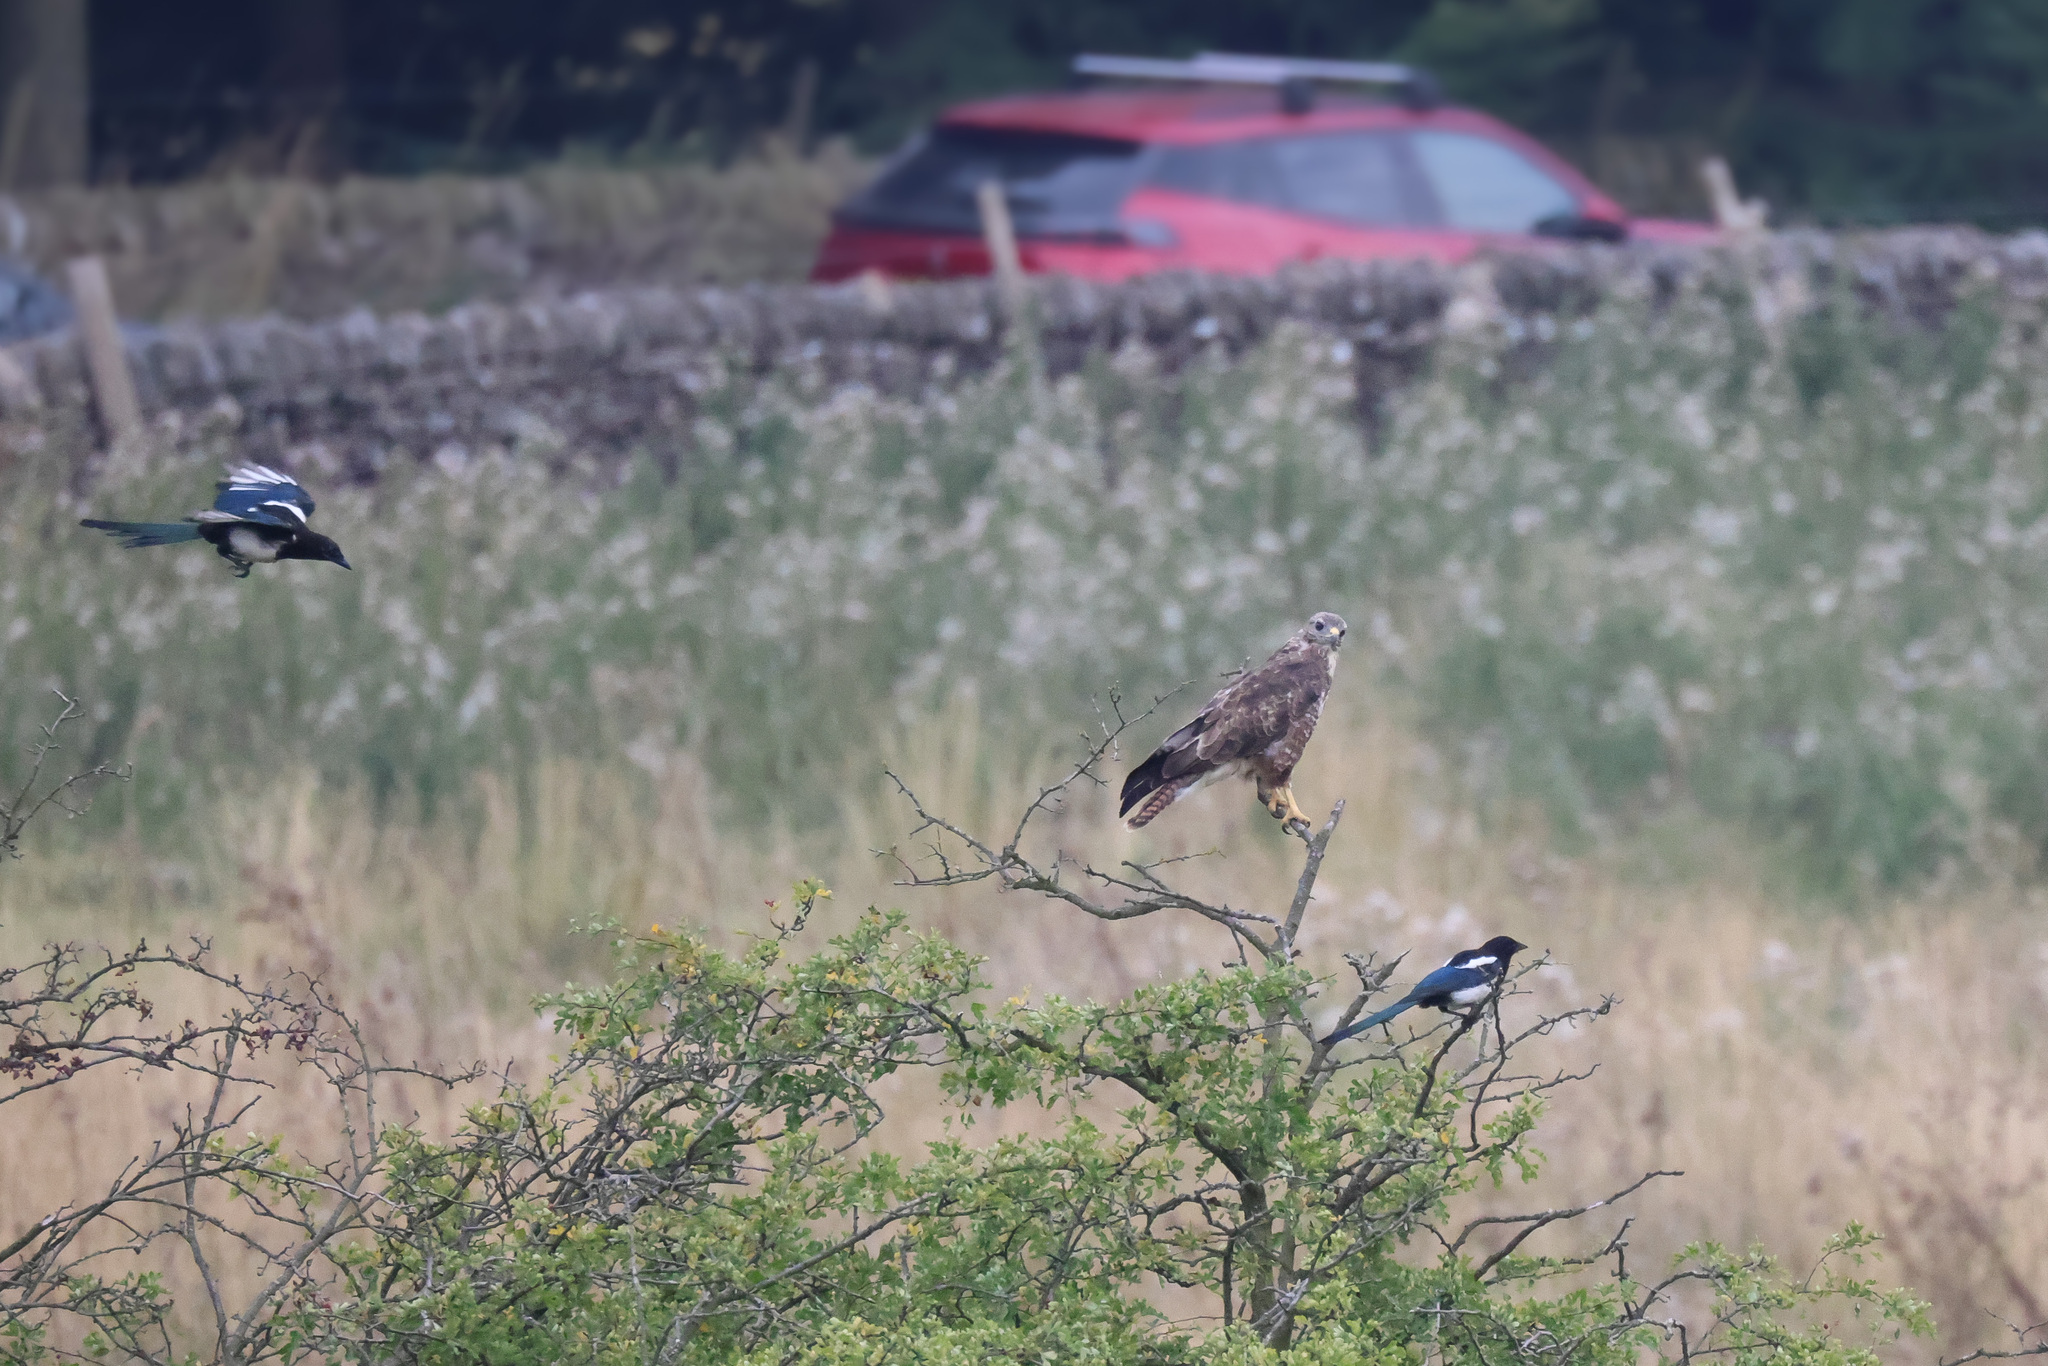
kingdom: Animalia
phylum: Chordata
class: Aves
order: Accipitriformes
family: Accipitridae
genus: Buteo
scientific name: Buteo buteo
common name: Common buzzard
